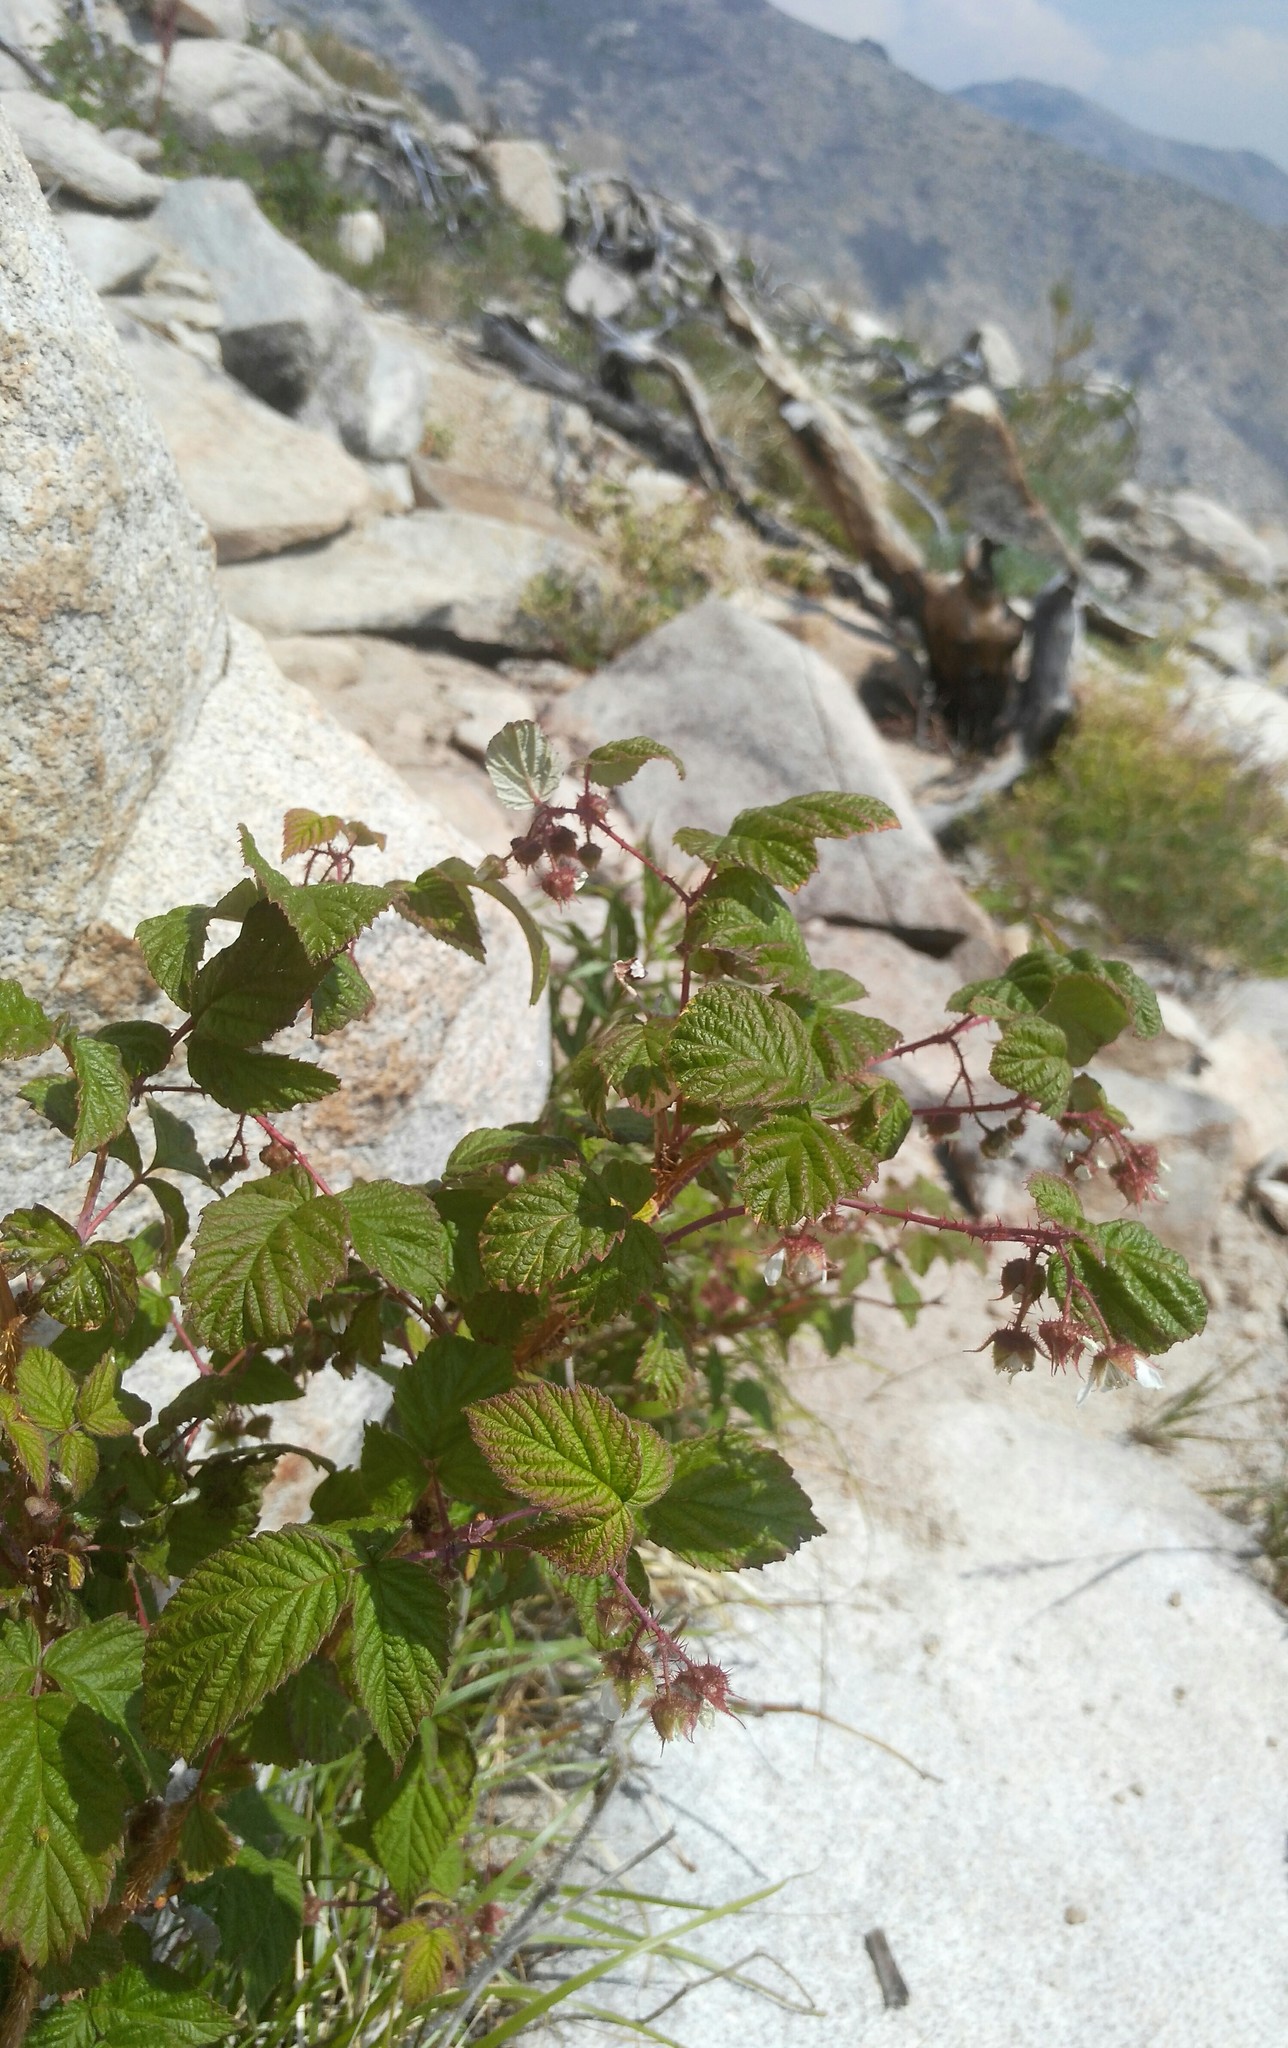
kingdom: Plantae
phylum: Tracheophyta
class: Magnoliopsida
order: Rosales
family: Rosaceae
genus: Rubus
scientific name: Rubus sachalinensis
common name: Red raspberry
